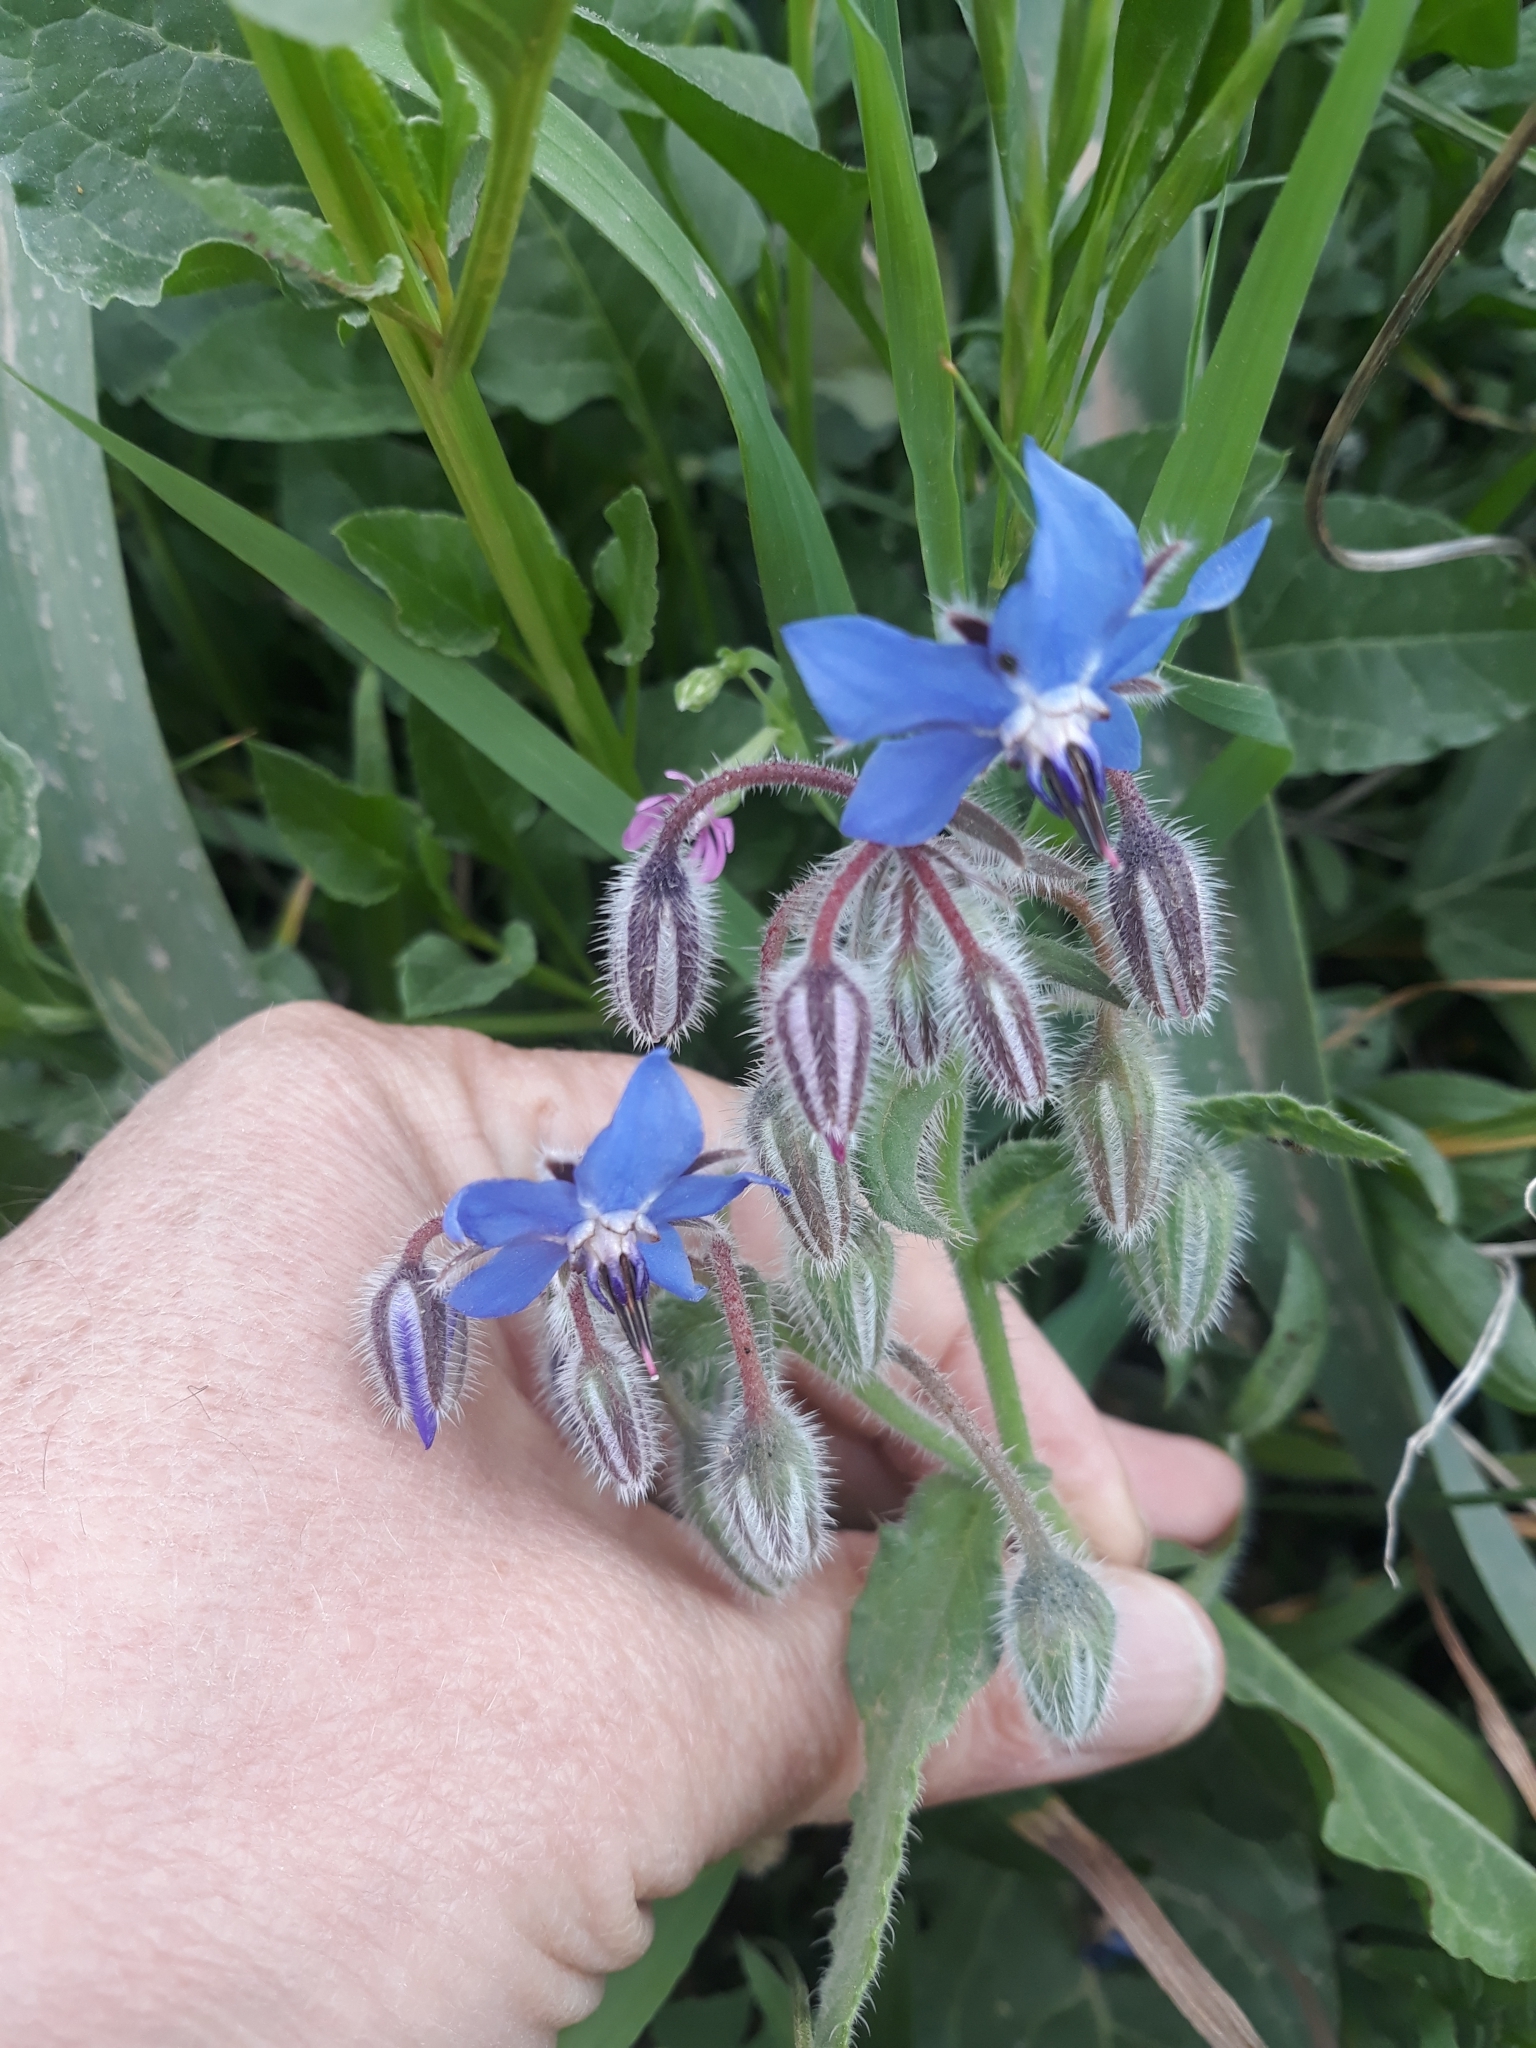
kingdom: Plantae
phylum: Tracheophyta
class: Magnoliopsida
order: Boraginales
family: Boraginaceae
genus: Borago
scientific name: Borago officinalis
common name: Borage
